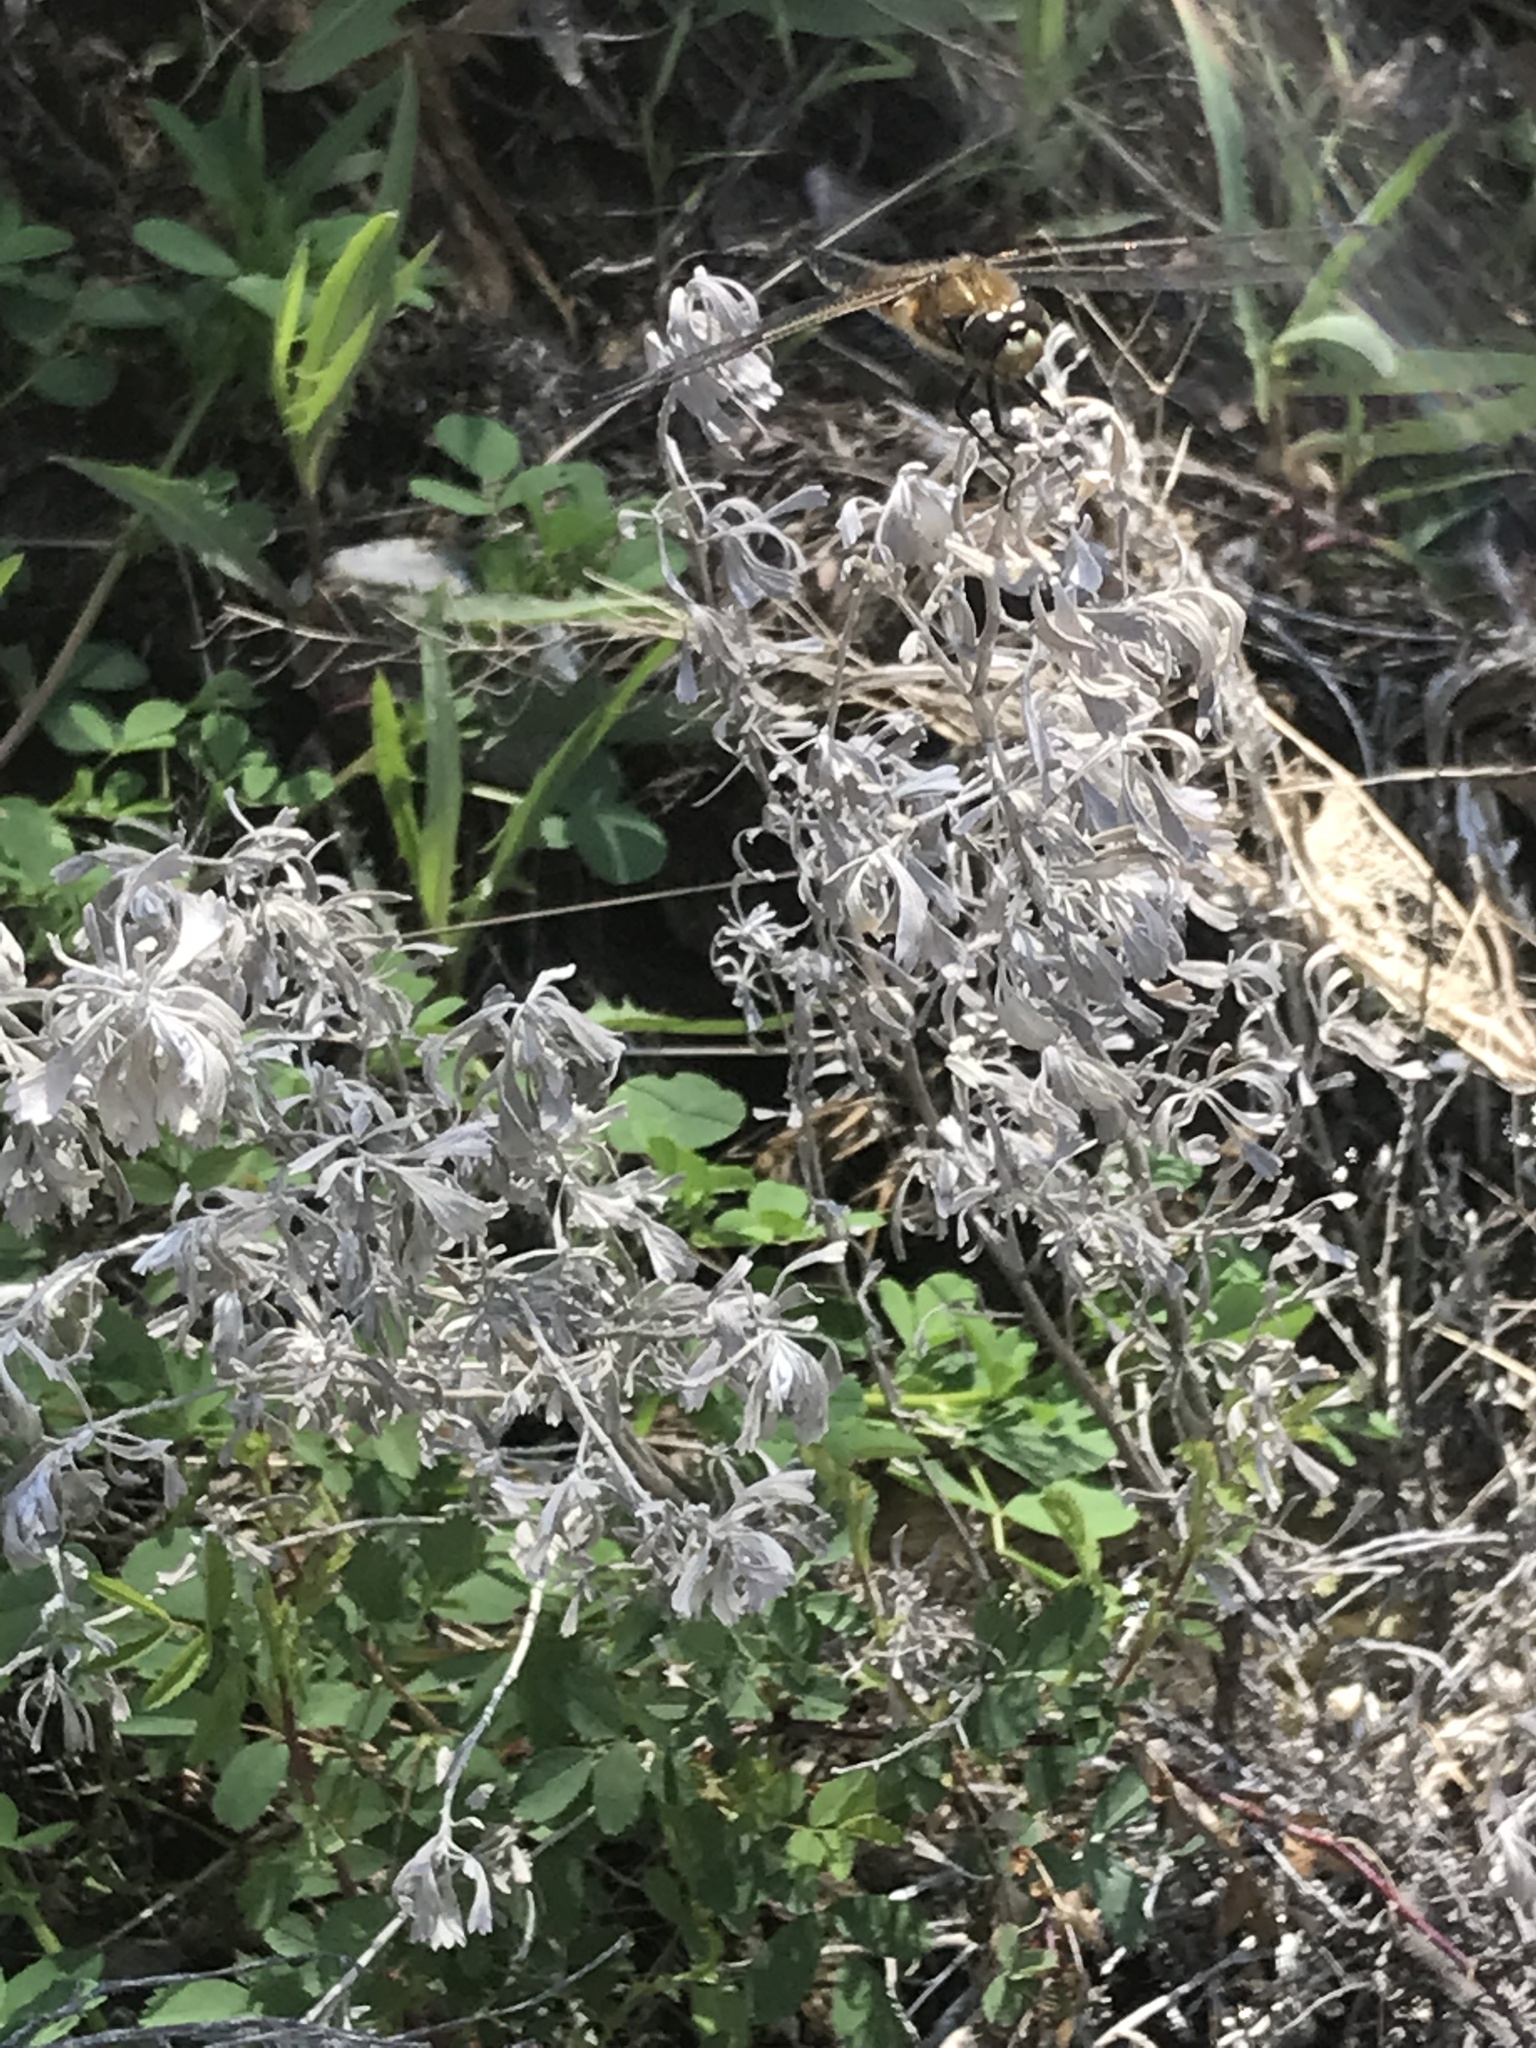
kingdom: Animalia
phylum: Arthropoda
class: Insecta
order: Odonata
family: Libellulidae
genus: Libellula
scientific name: Libellula quadrimaculata
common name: Four-spotted chaser
